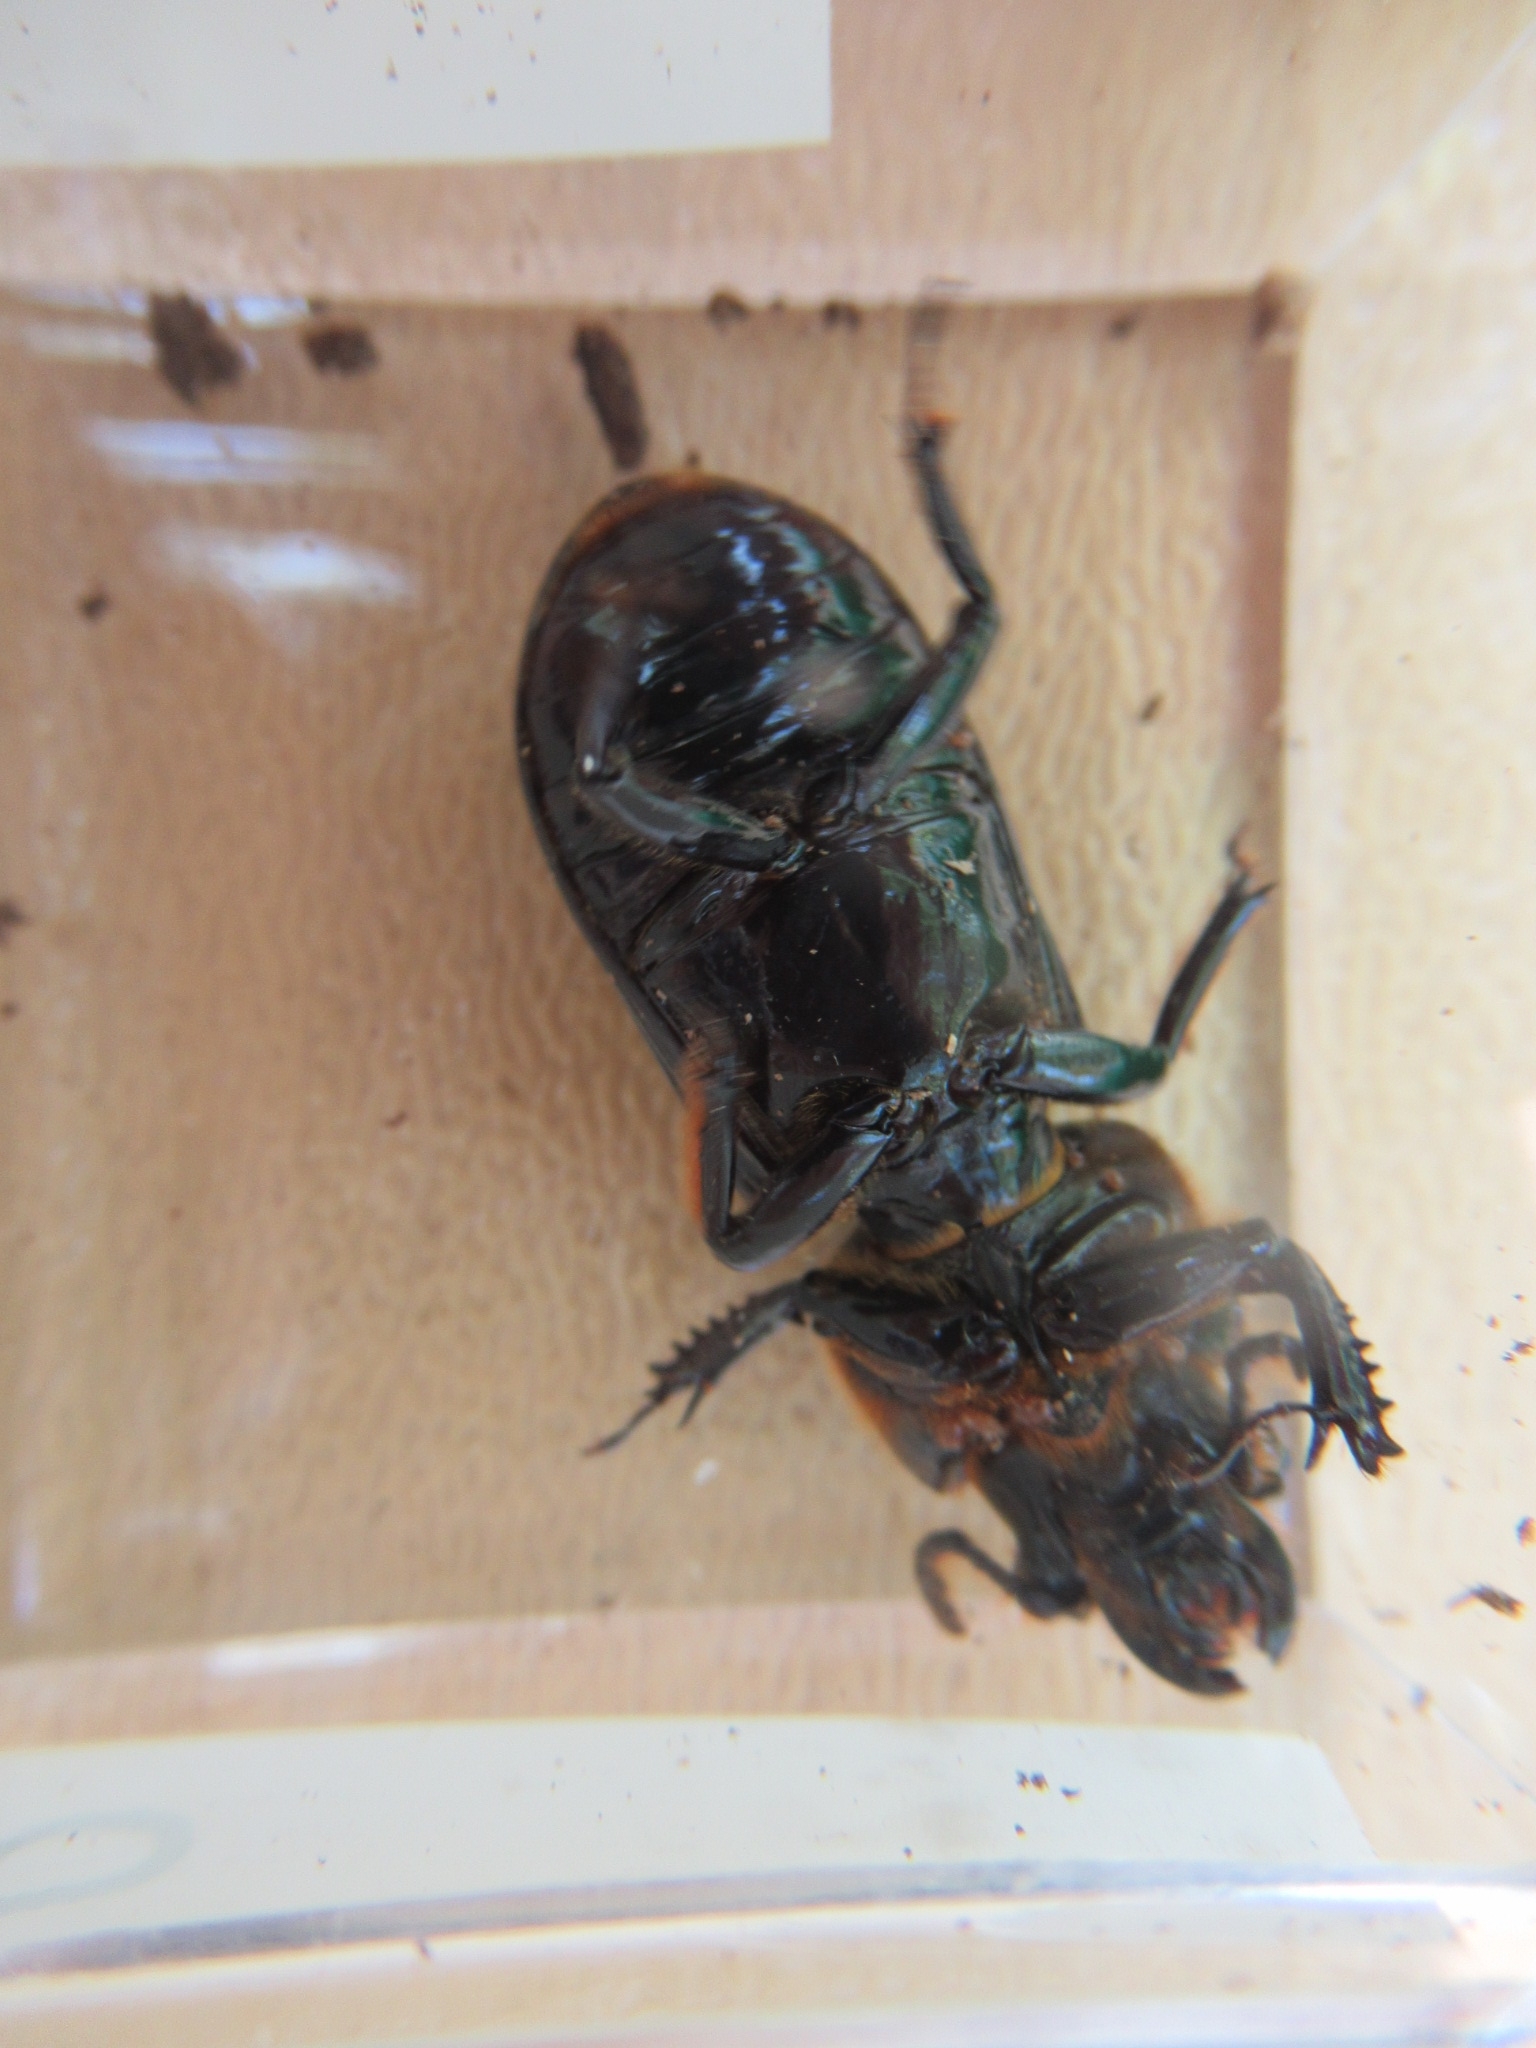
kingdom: Animalia
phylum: Arthropoda
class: Insecta
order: Coleoptera
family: Passalidae
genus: Odontotaenius
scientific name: Odontotaenius disjunctus
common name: Patent leather beetle
